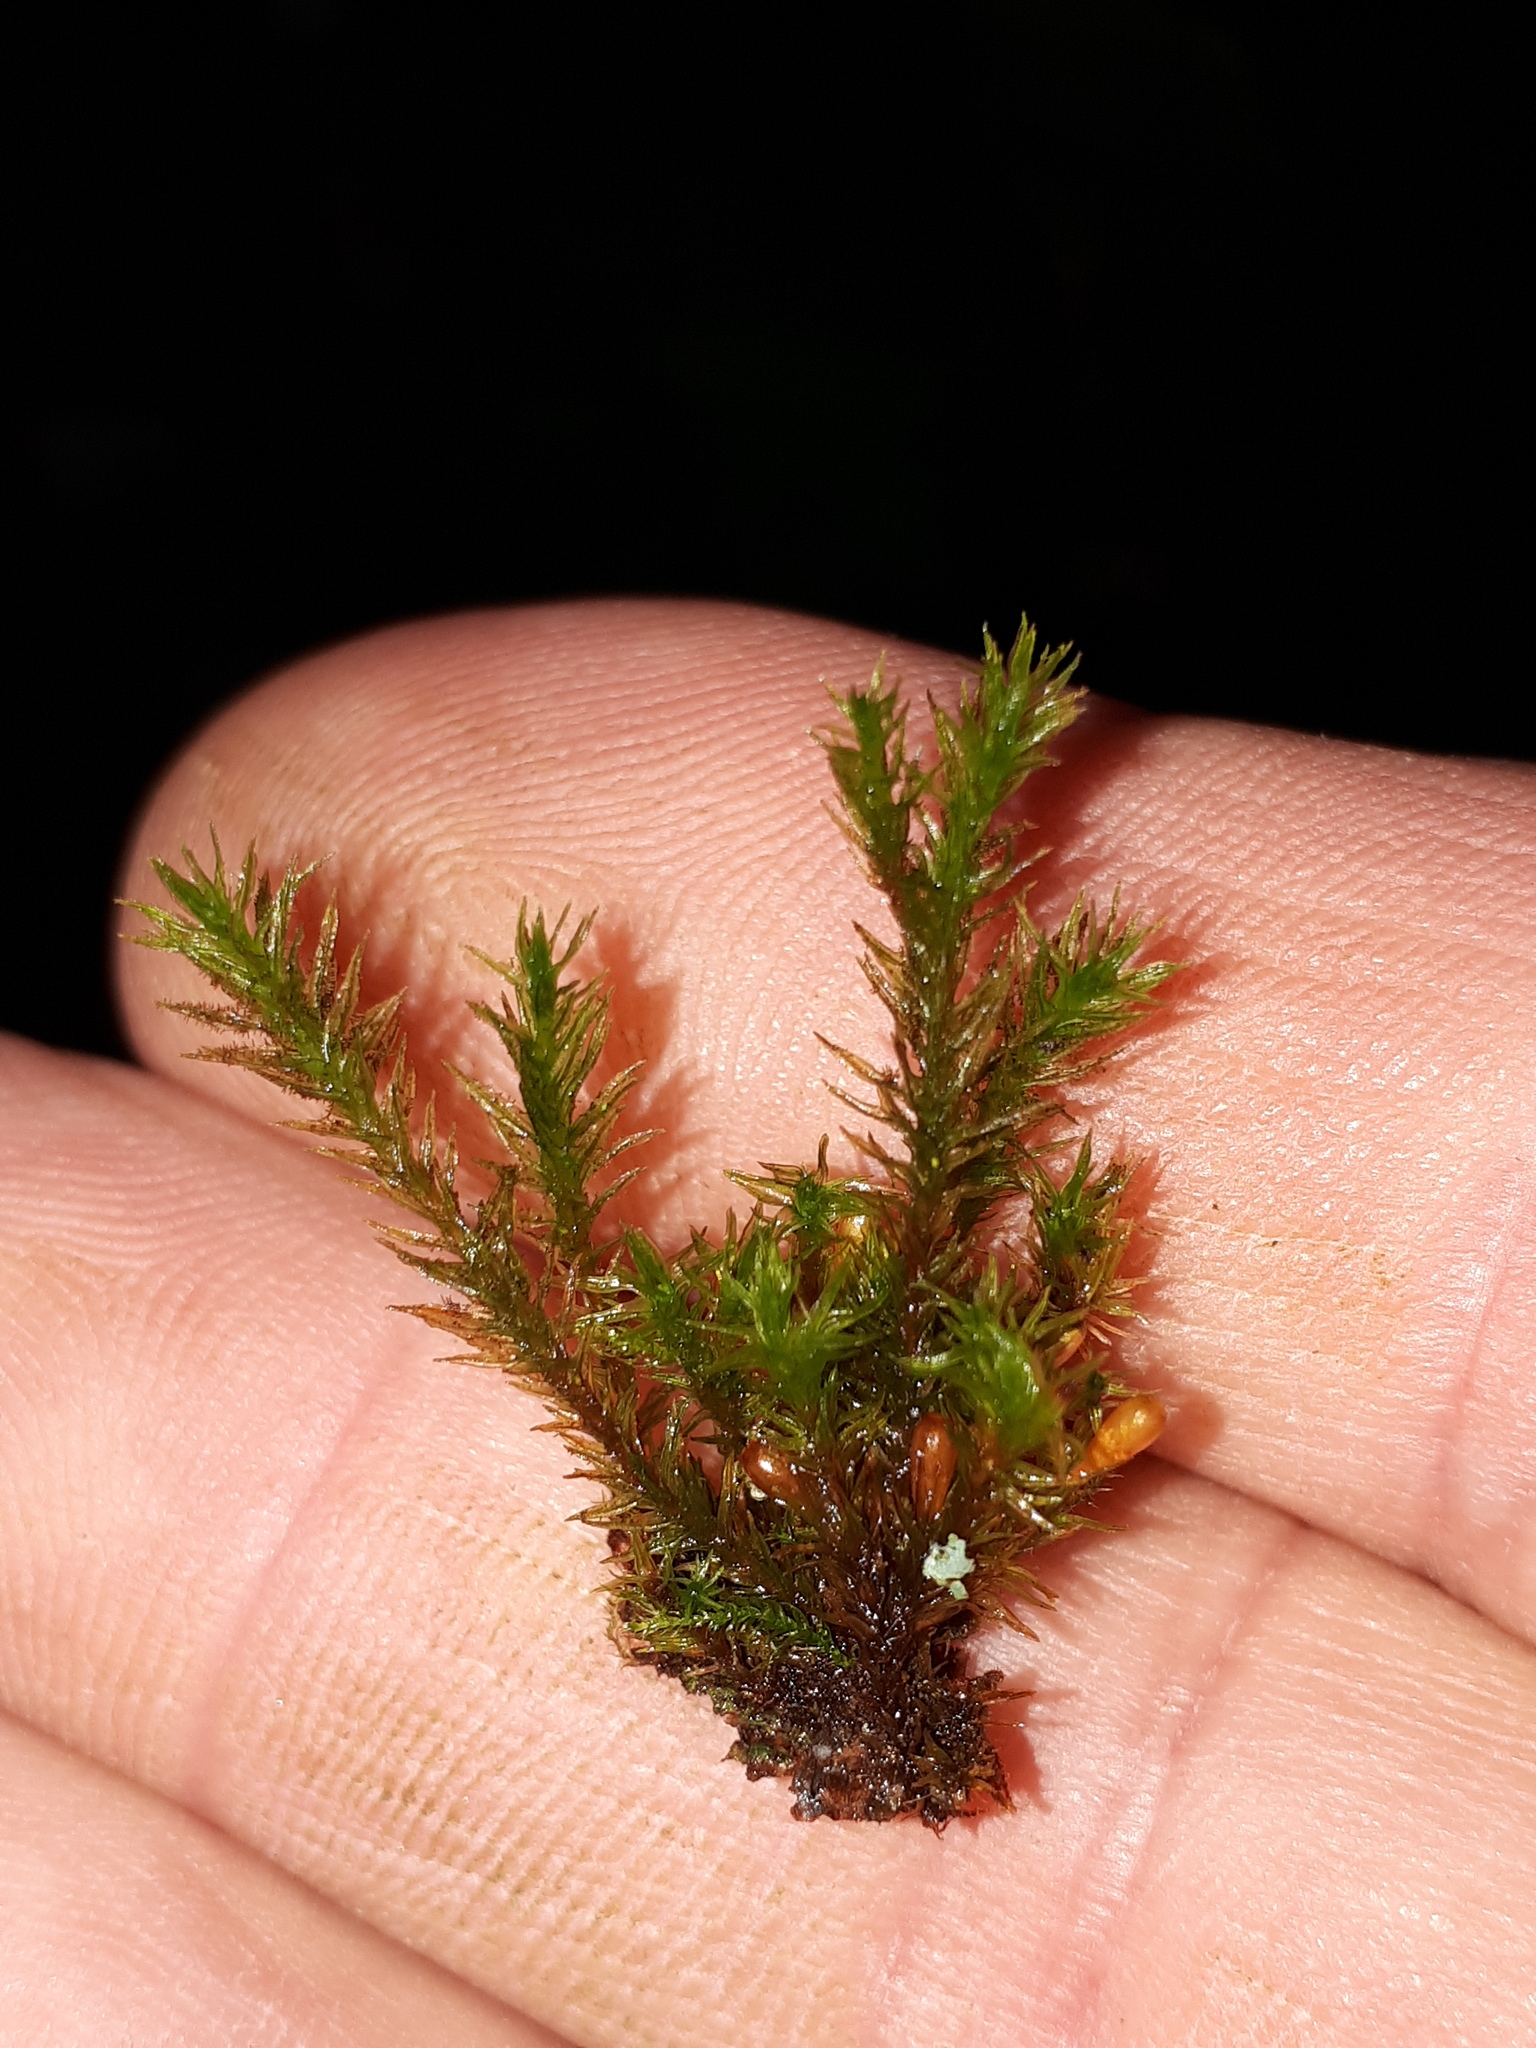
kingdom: Plantae
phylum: Bryophyta
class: Bryopsida
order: Orthotrichales
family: Orthotrichaceae
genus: Pulvigera
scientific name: Pulvigera lyellii
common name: Lyell's bristle-moss
